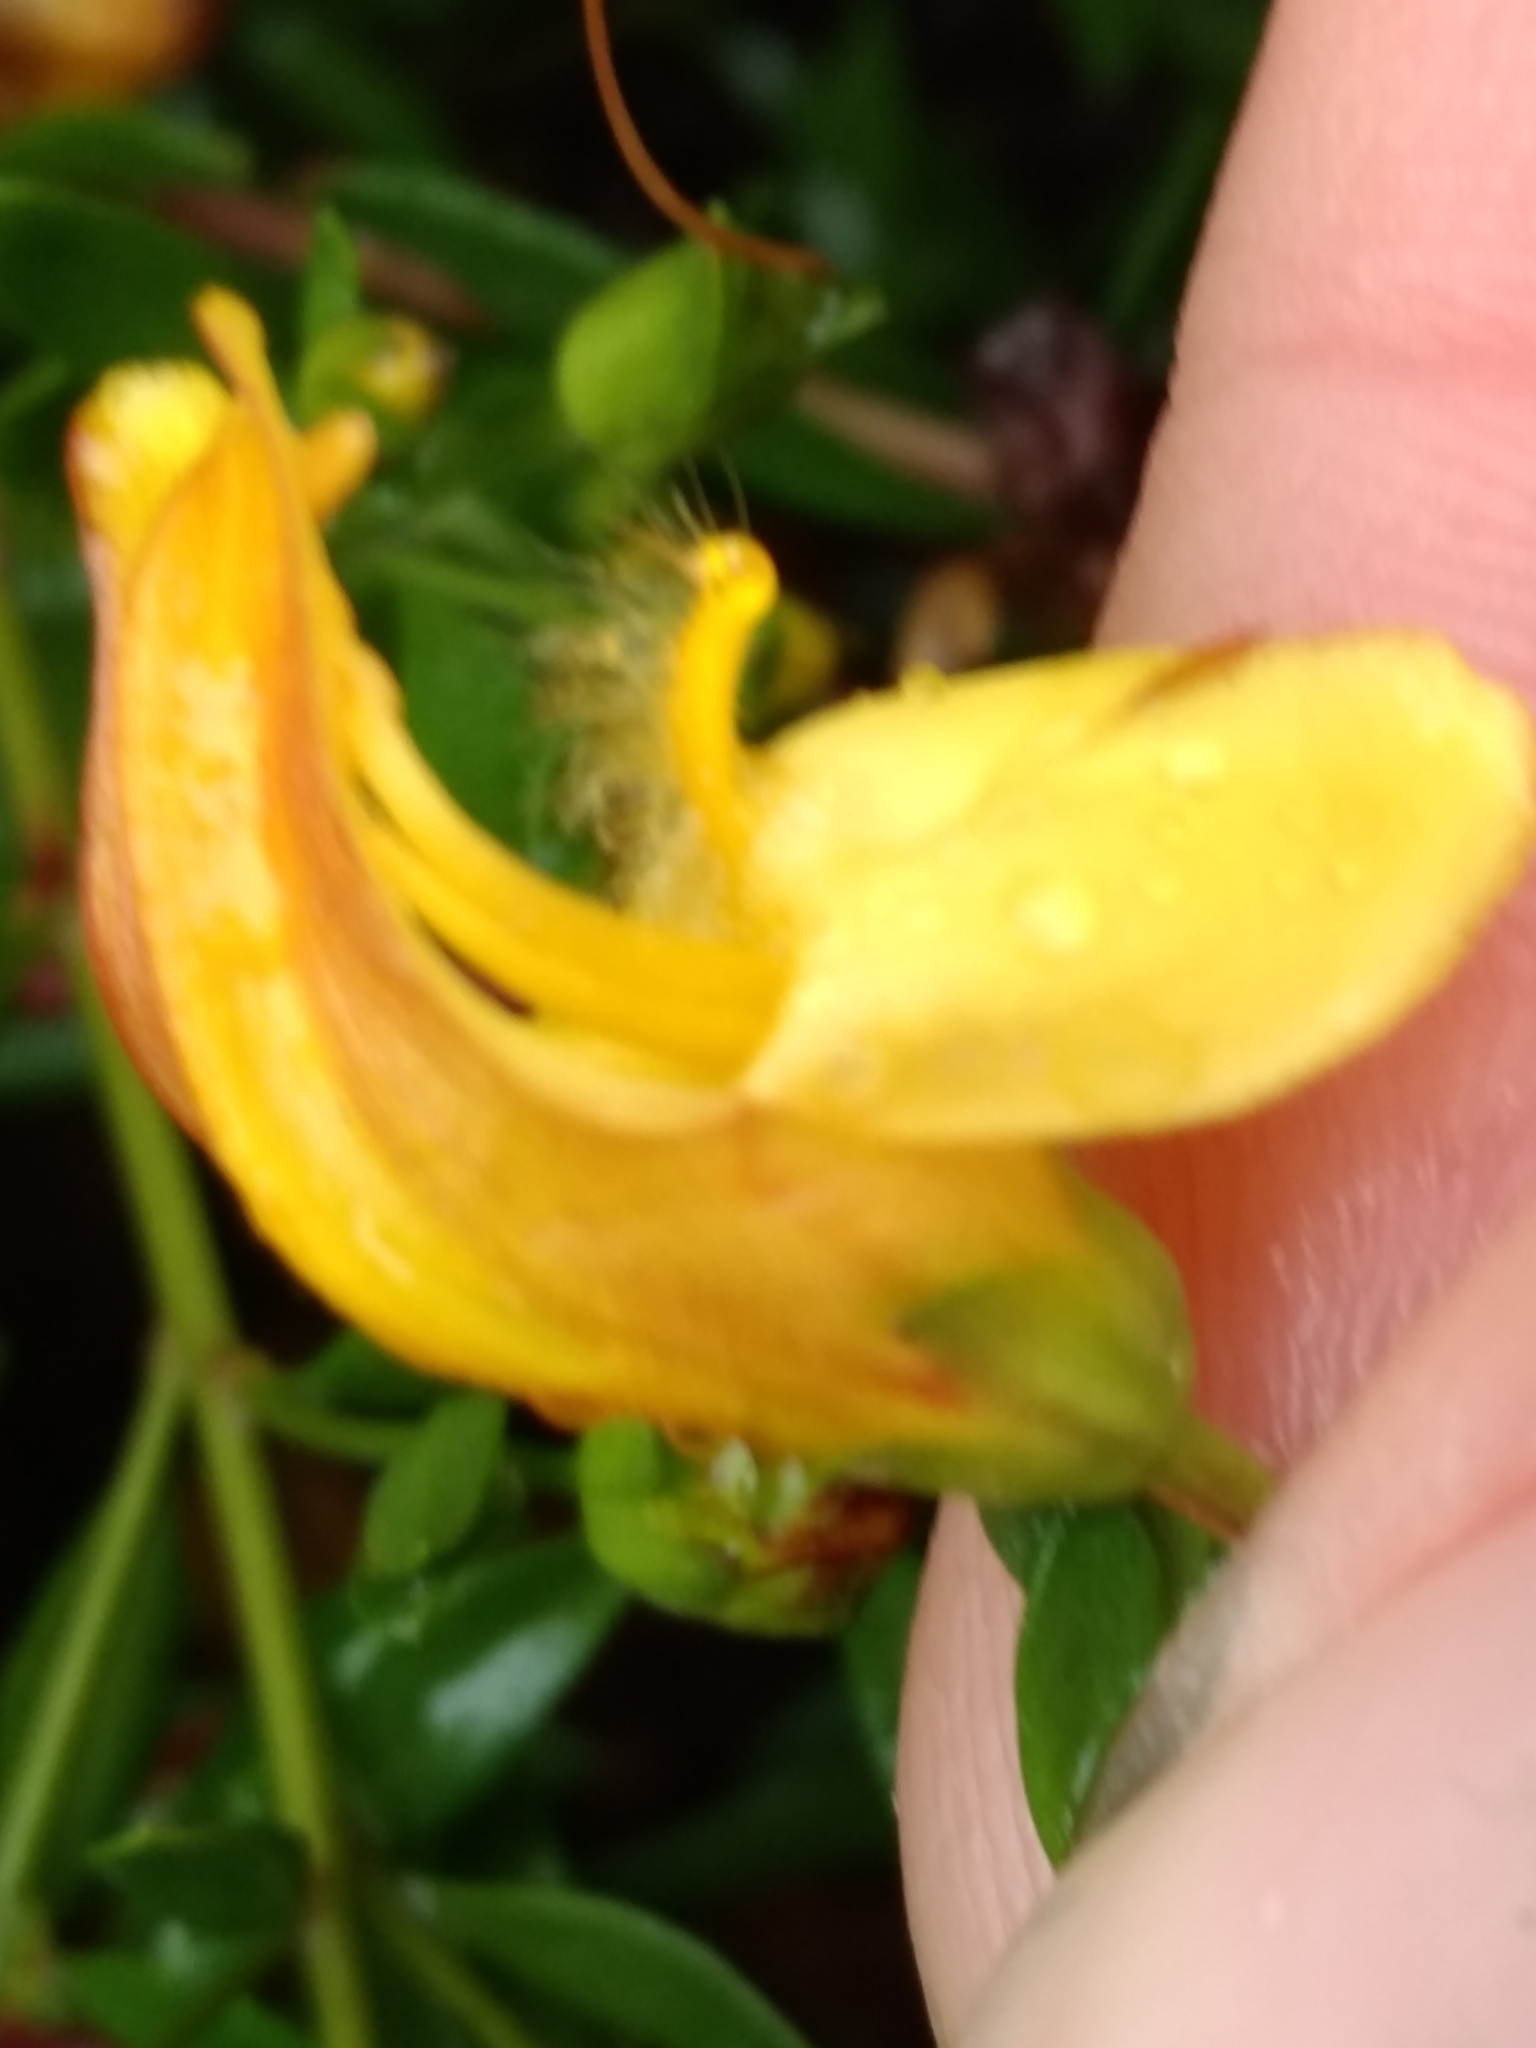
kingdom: Plantae
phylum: Tracheophyta
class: Magnoliopsida
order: Lamiales
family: Plantaginaceae
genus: Keckiella
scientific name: Keckiella antirrhinoides
